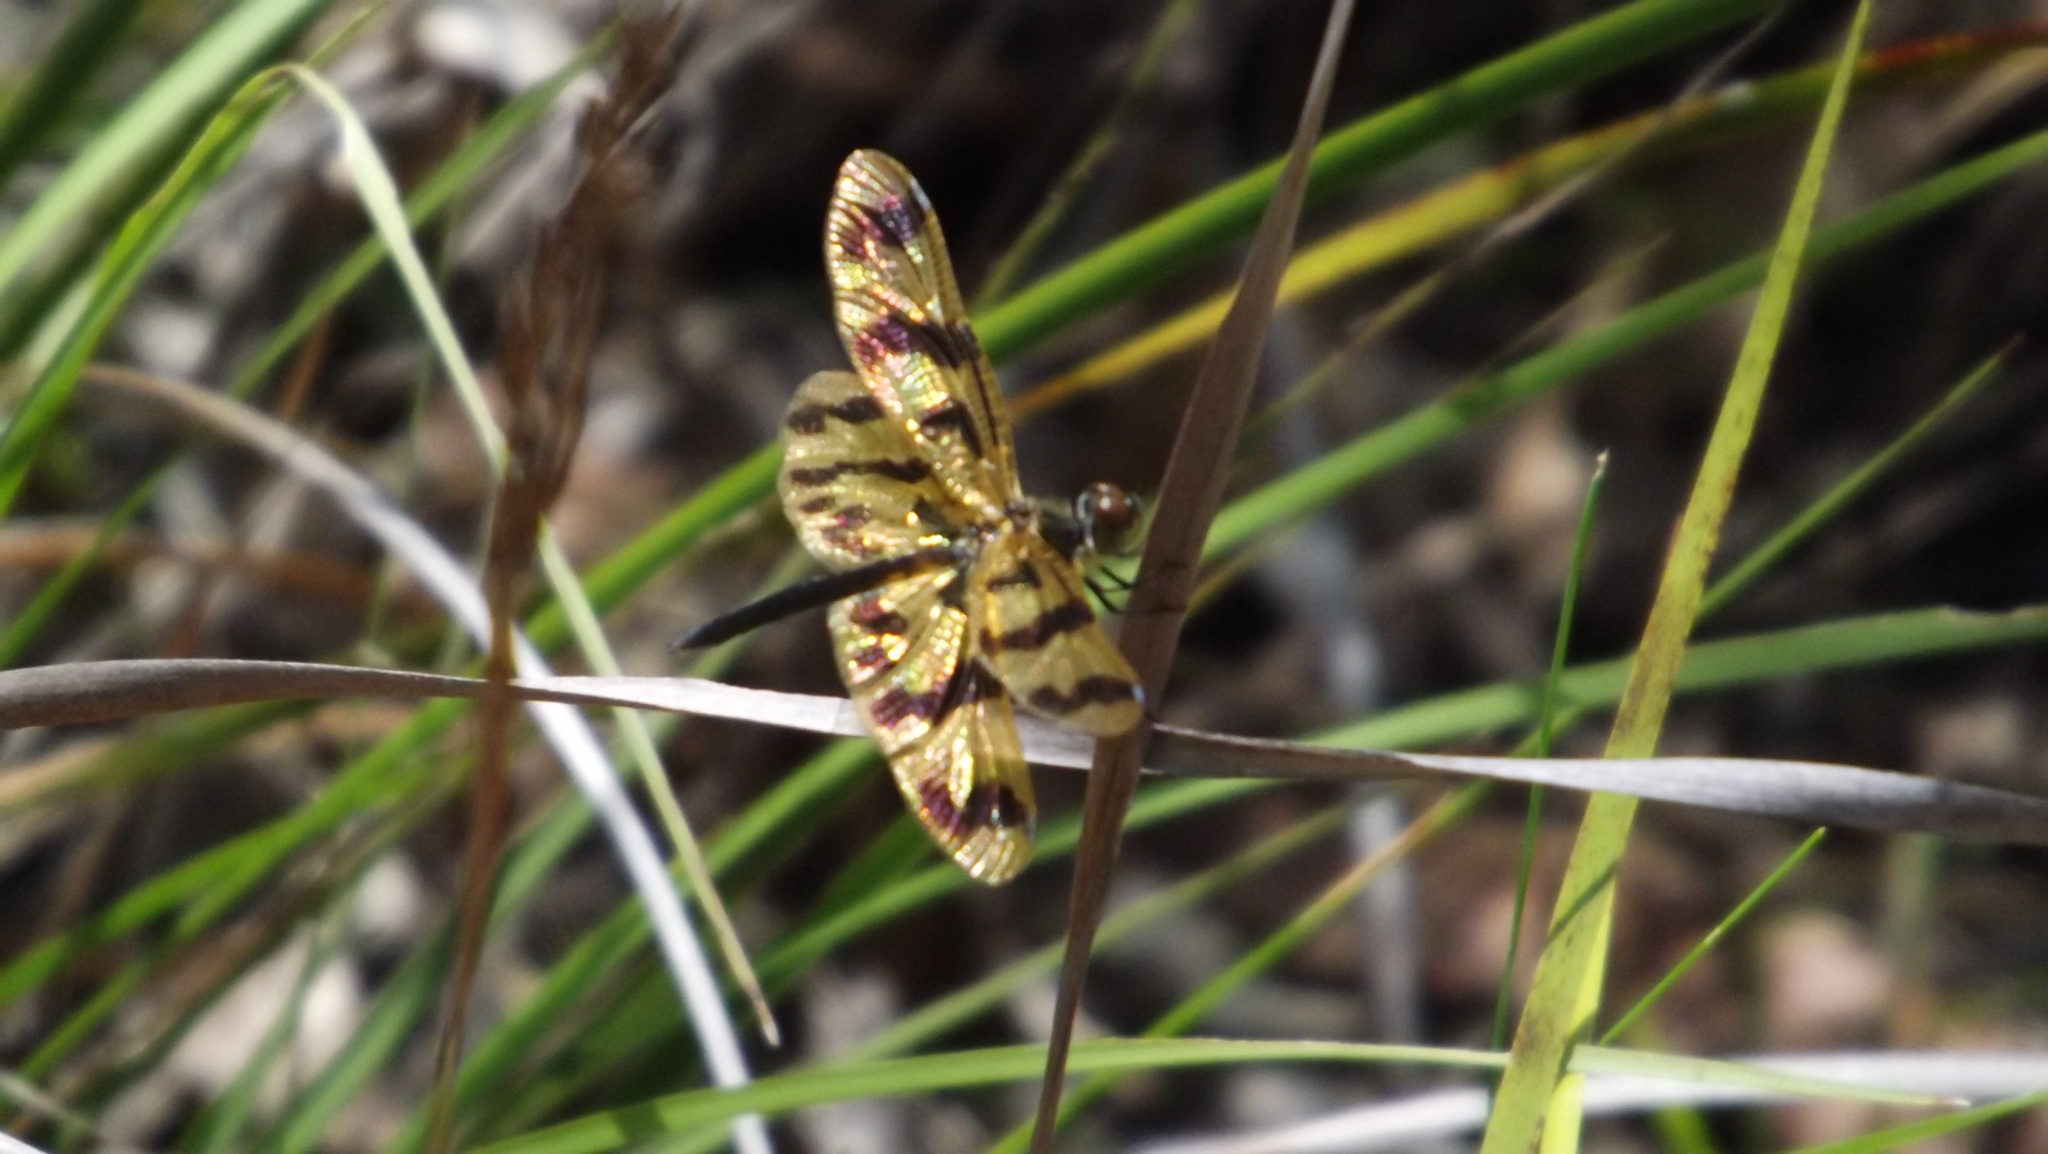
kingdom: Animalia
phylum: Arthropoda
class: Insecta
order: Odonata
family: Libellulidae
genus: Rhyothemis
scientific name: Rhyothemis graphiptera
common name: Graphic flutterer
